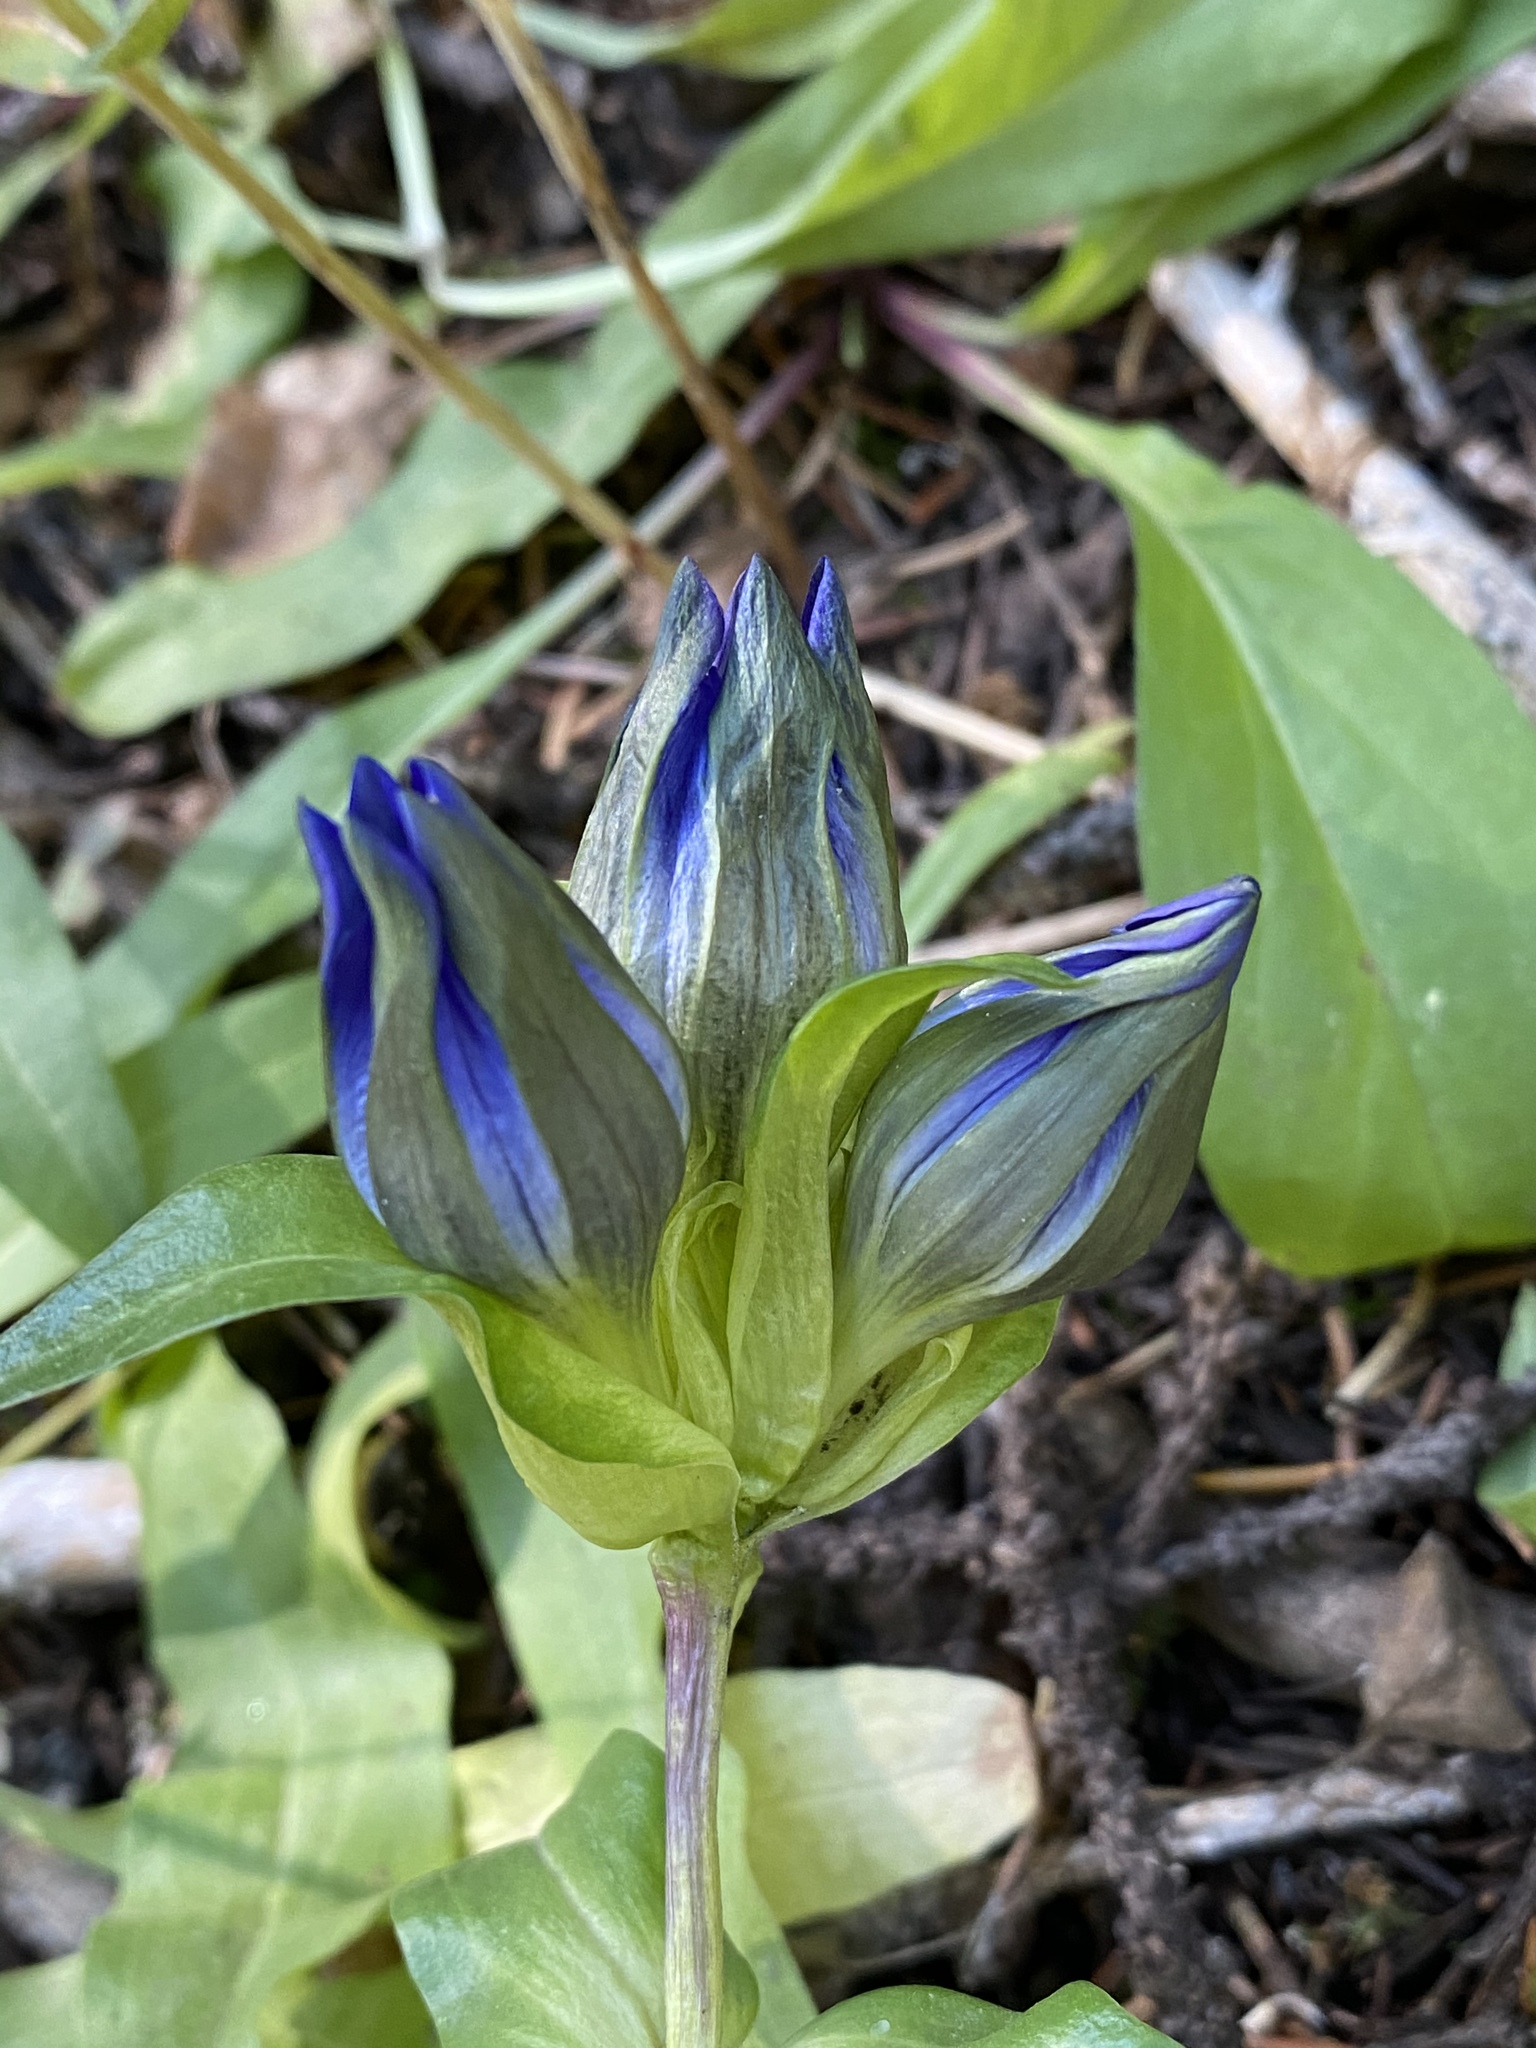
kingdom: Plantae
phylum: Tracheophyta
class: Magnoliopsida
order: Gentianales
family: Gentianaceae
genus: Gentiana
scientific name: Gentiana parryi
